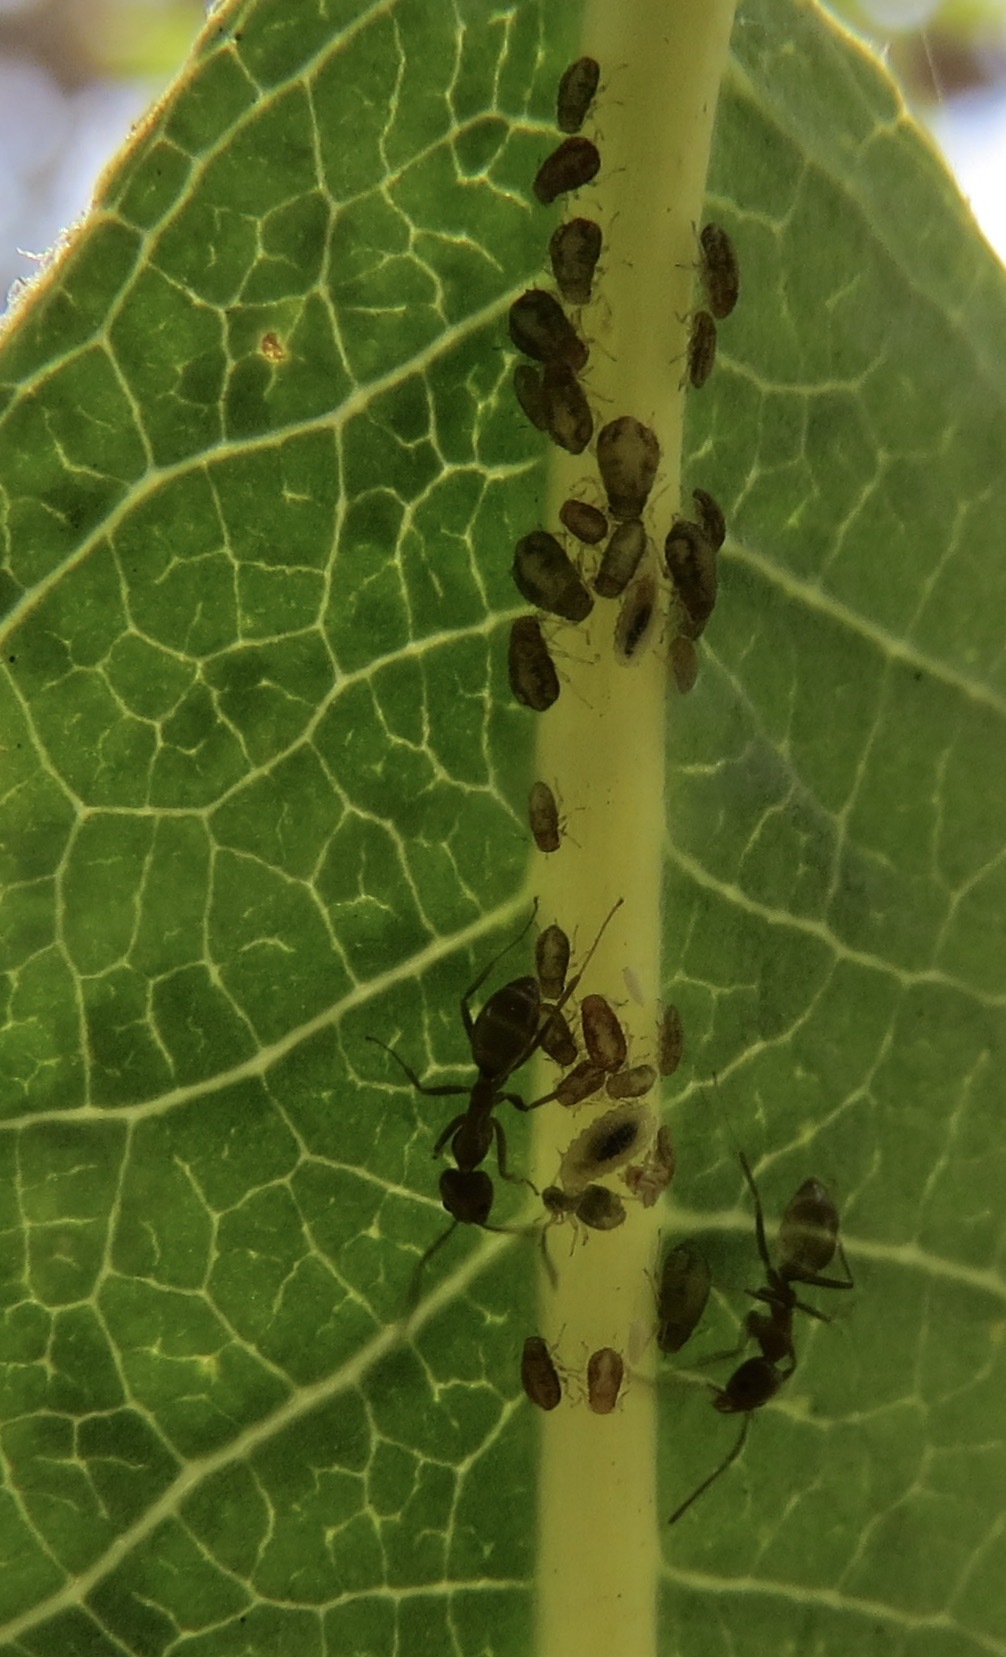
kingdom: Animalia
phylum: Arthropoda
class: Insecta
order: Hymenoptera
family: Formicidae
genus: Linepithema
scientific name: Linepithema humile
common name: Argentine ant
